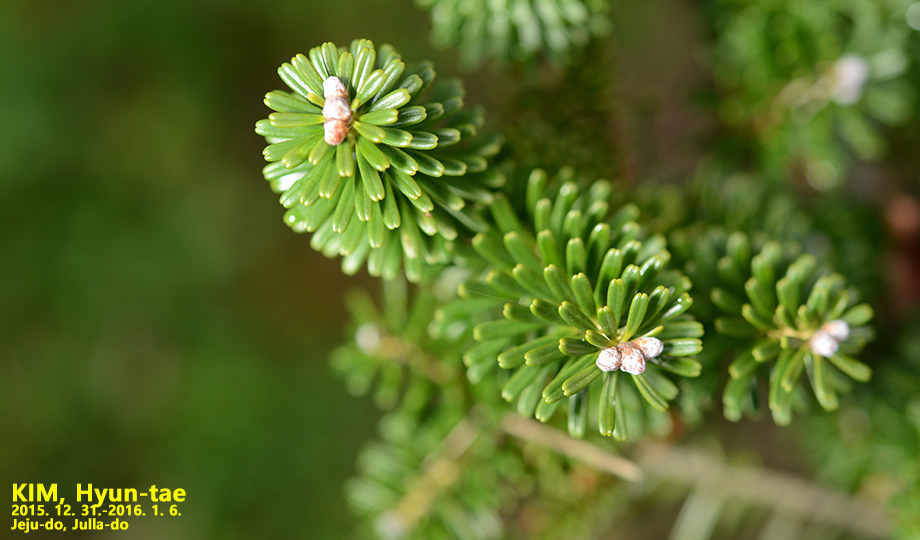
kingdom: Plantae
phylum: Tracheophyta
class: Pinopsida
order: Pinales
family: Pinaceae
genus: Abies
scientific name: Abies koreana
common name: Korean fir
